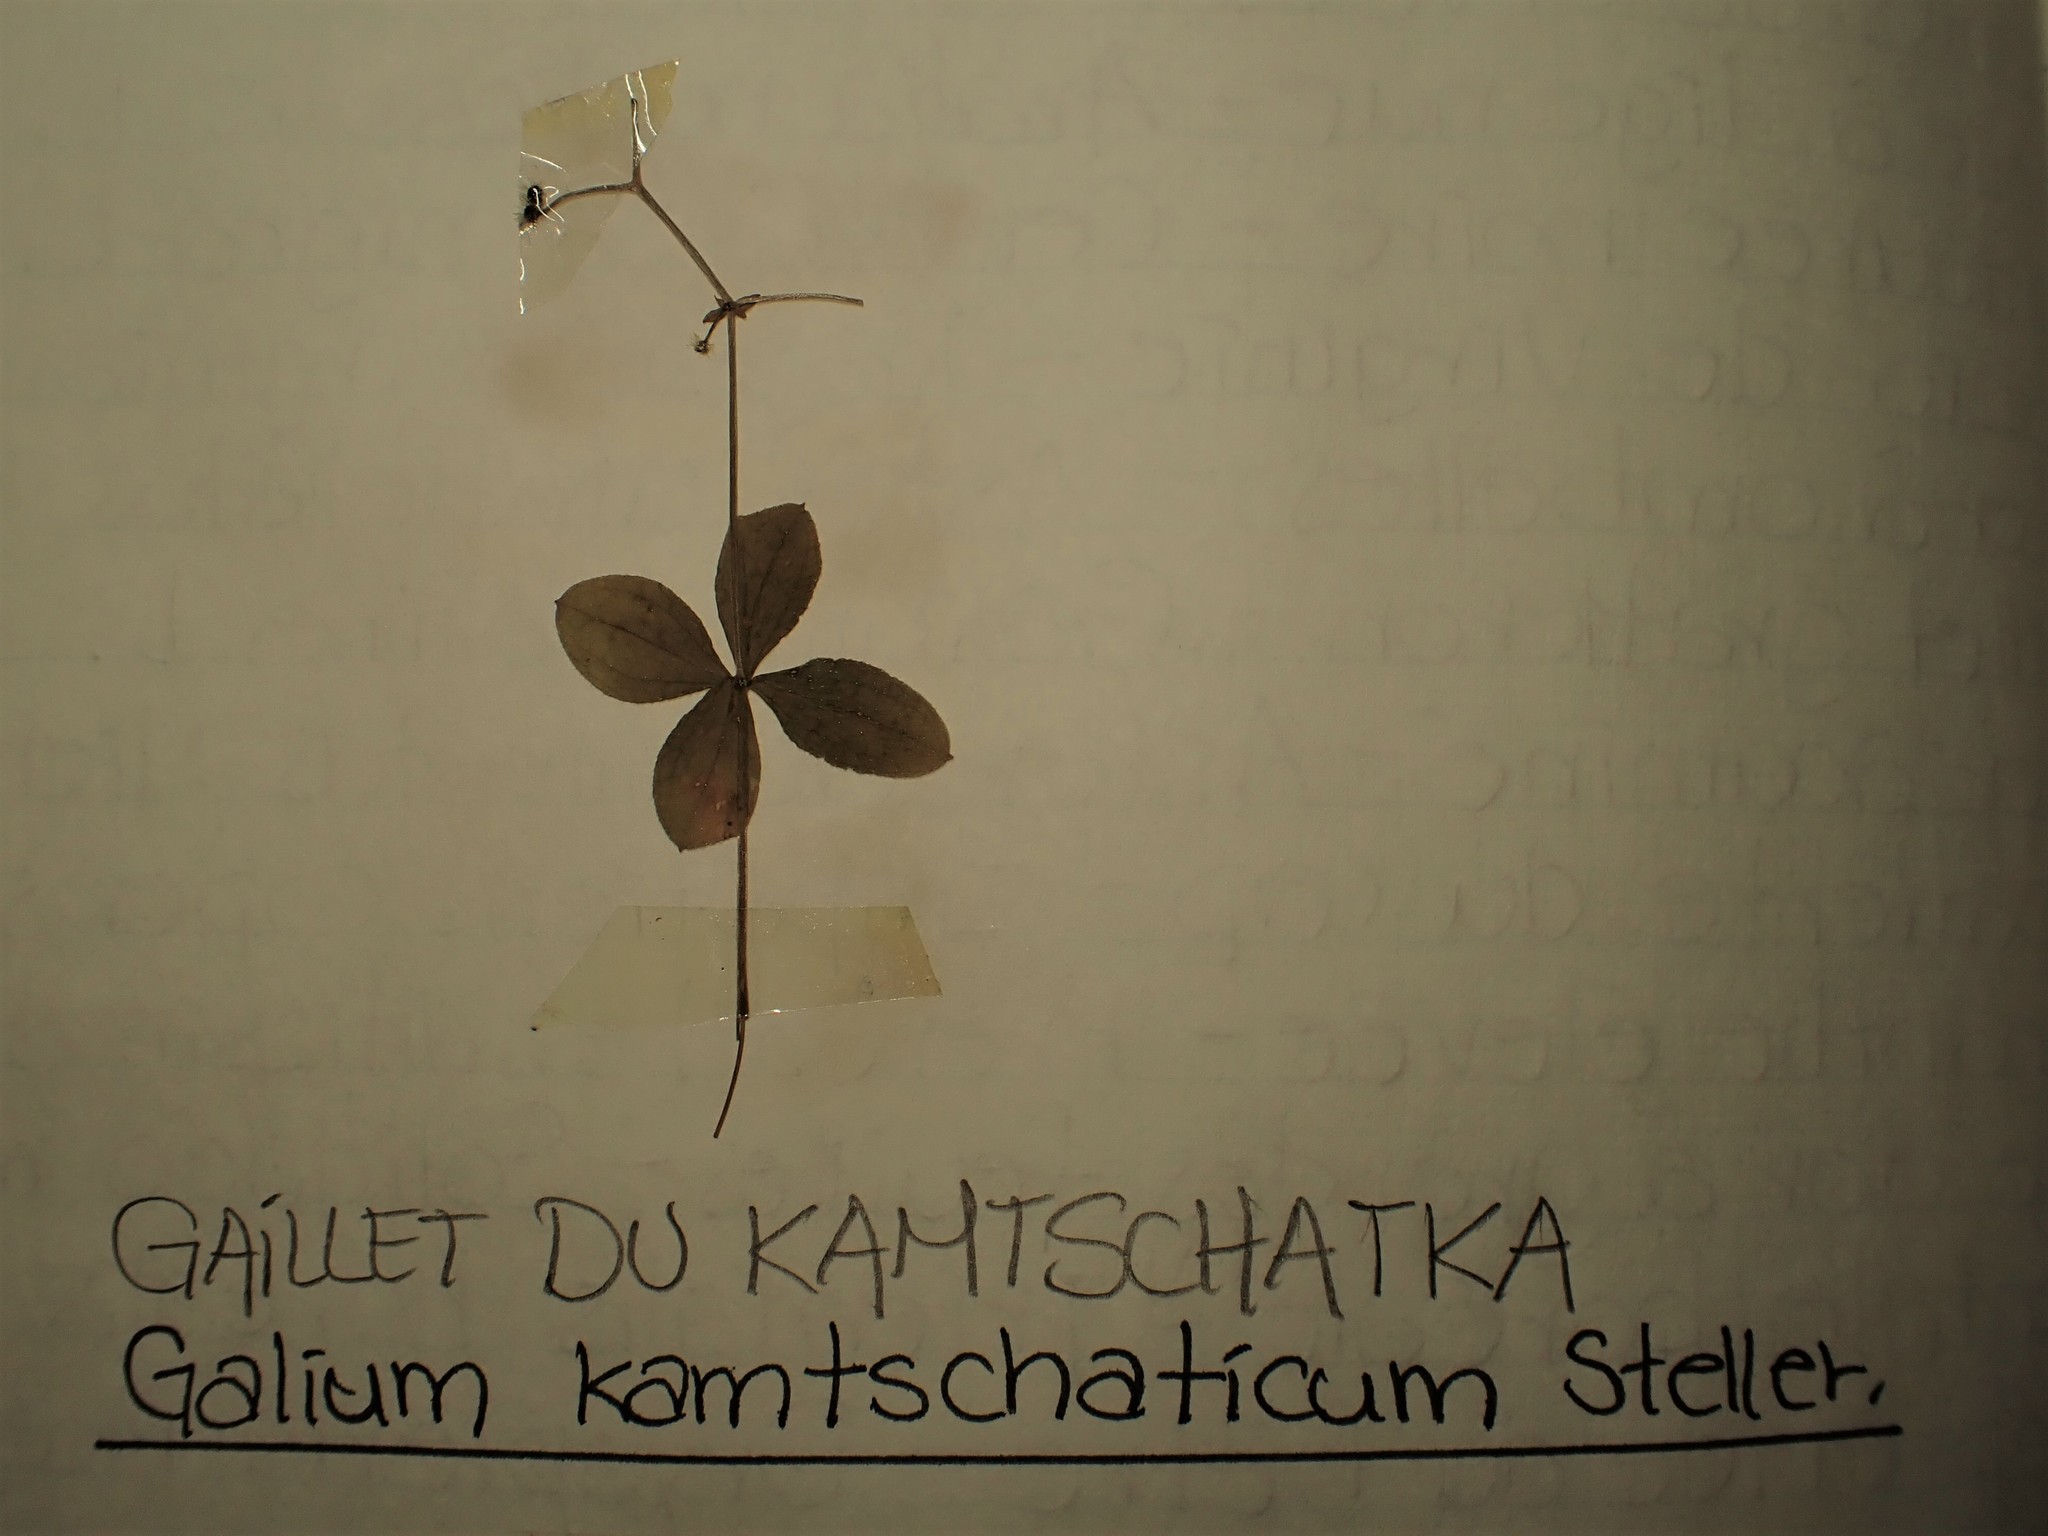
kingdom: Plantae
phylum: Tracheophyta
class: Magnoliopsida
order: Gentianales
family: Rubiaceae
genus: Galium
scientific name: Galium kamtschaticum
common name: Boreal bedstraw
